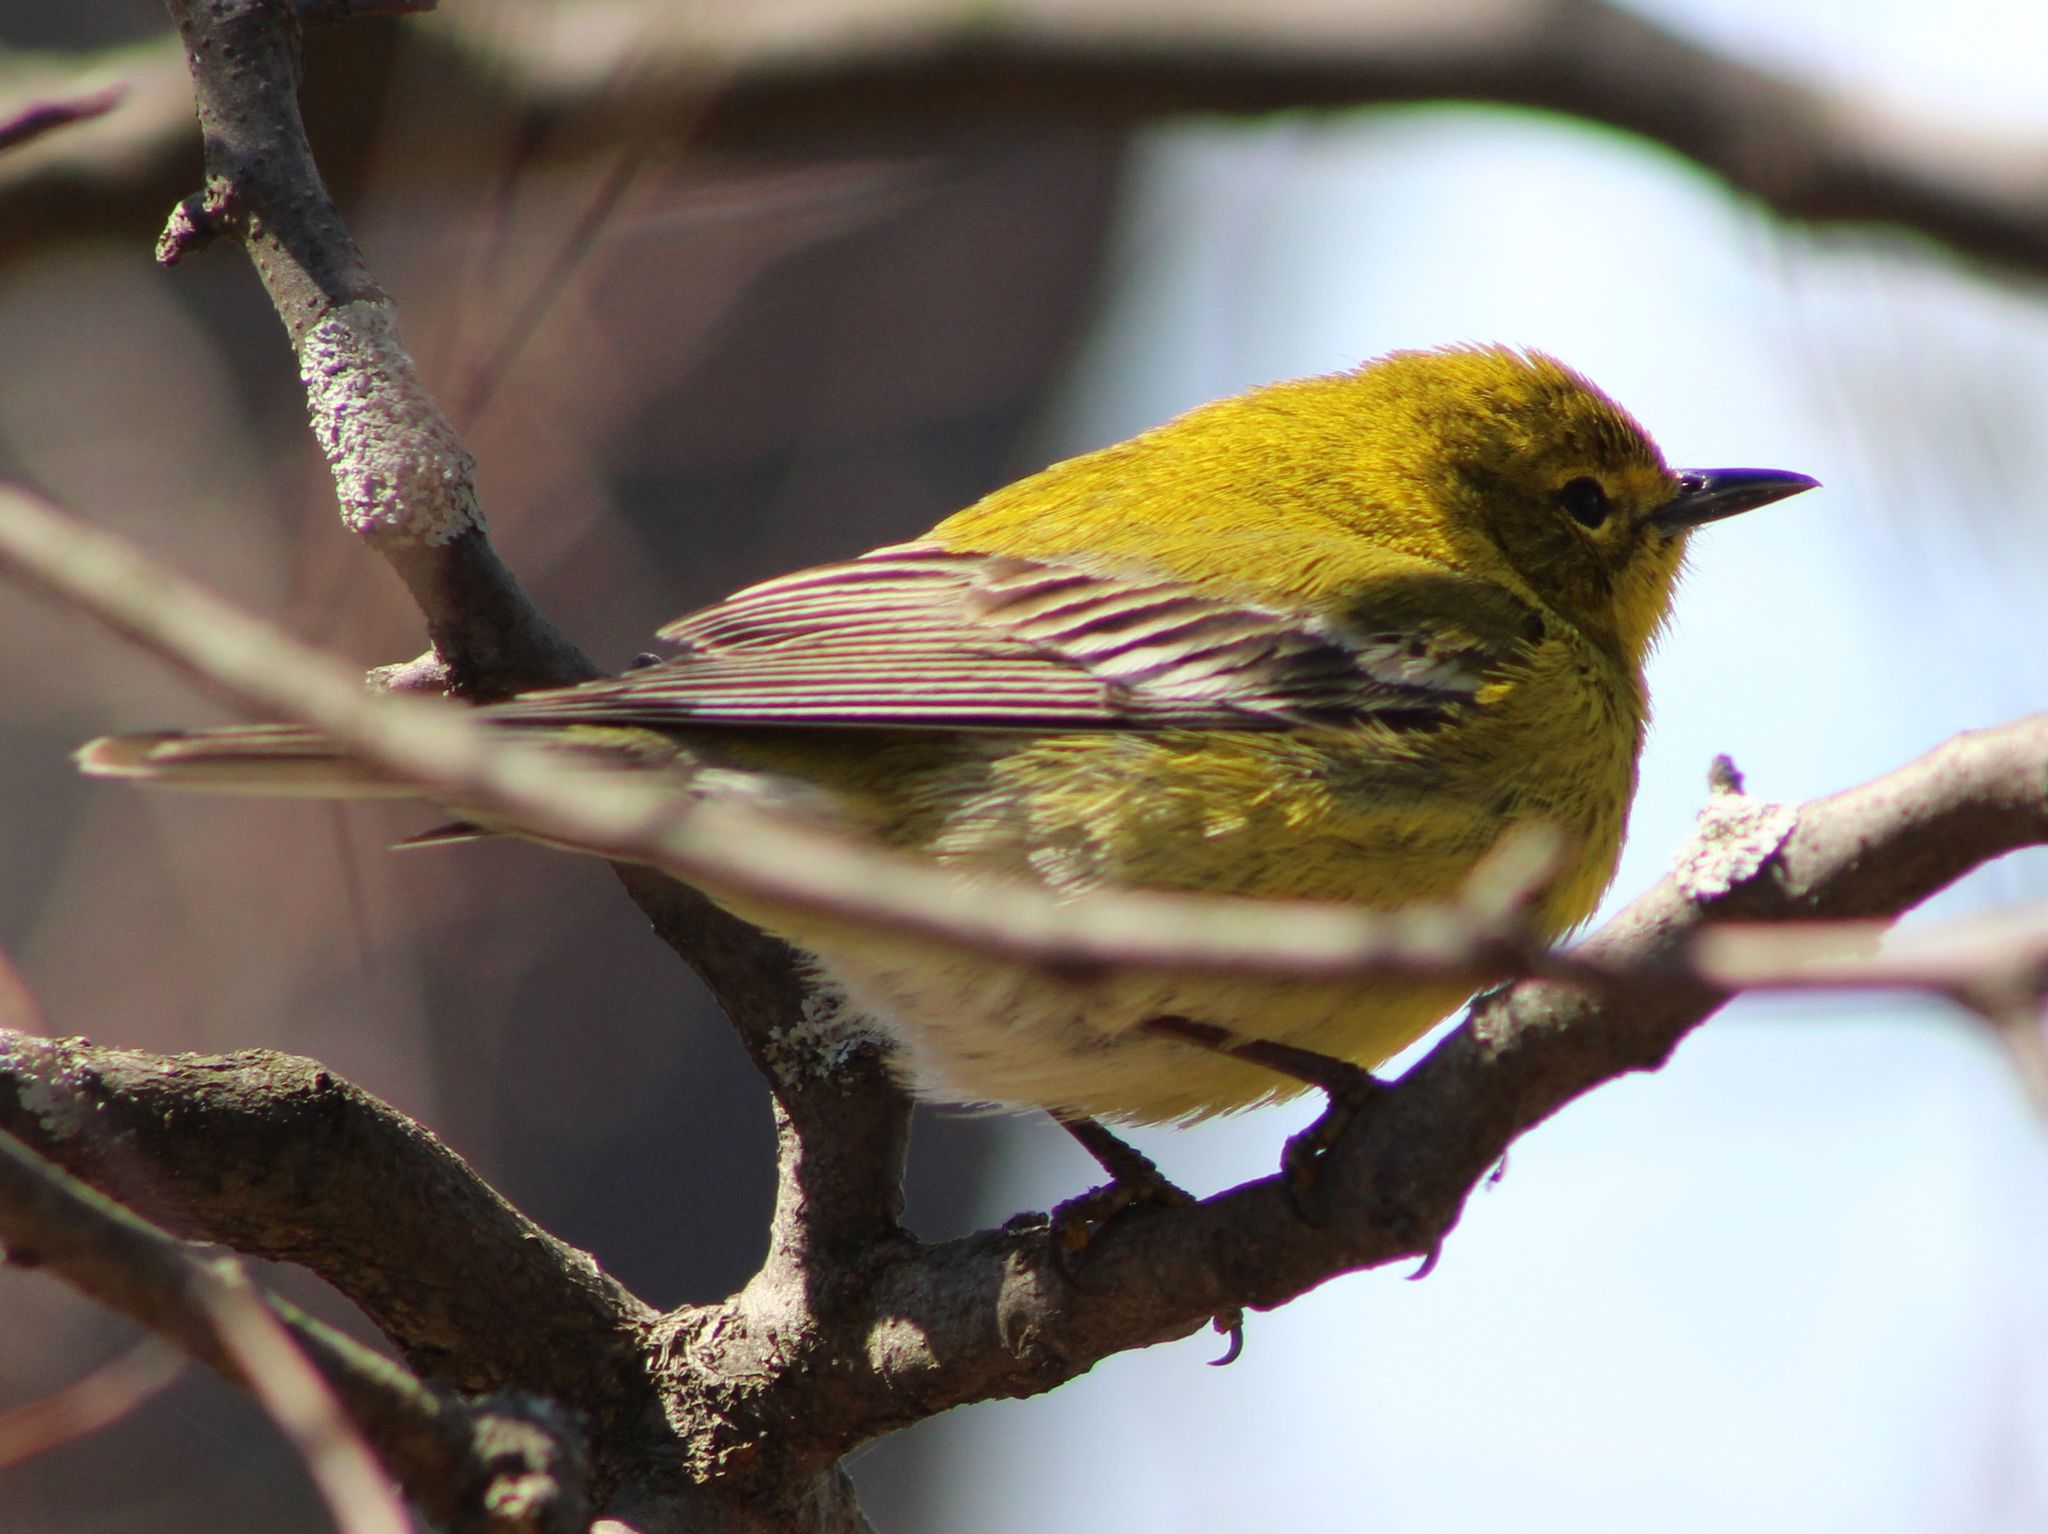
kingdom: Animalia
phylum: Chordata
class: Aves
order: Passeriformes
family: Parulidae
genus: Setophaga
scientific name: Setophaga pinus
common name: Pine warbler
